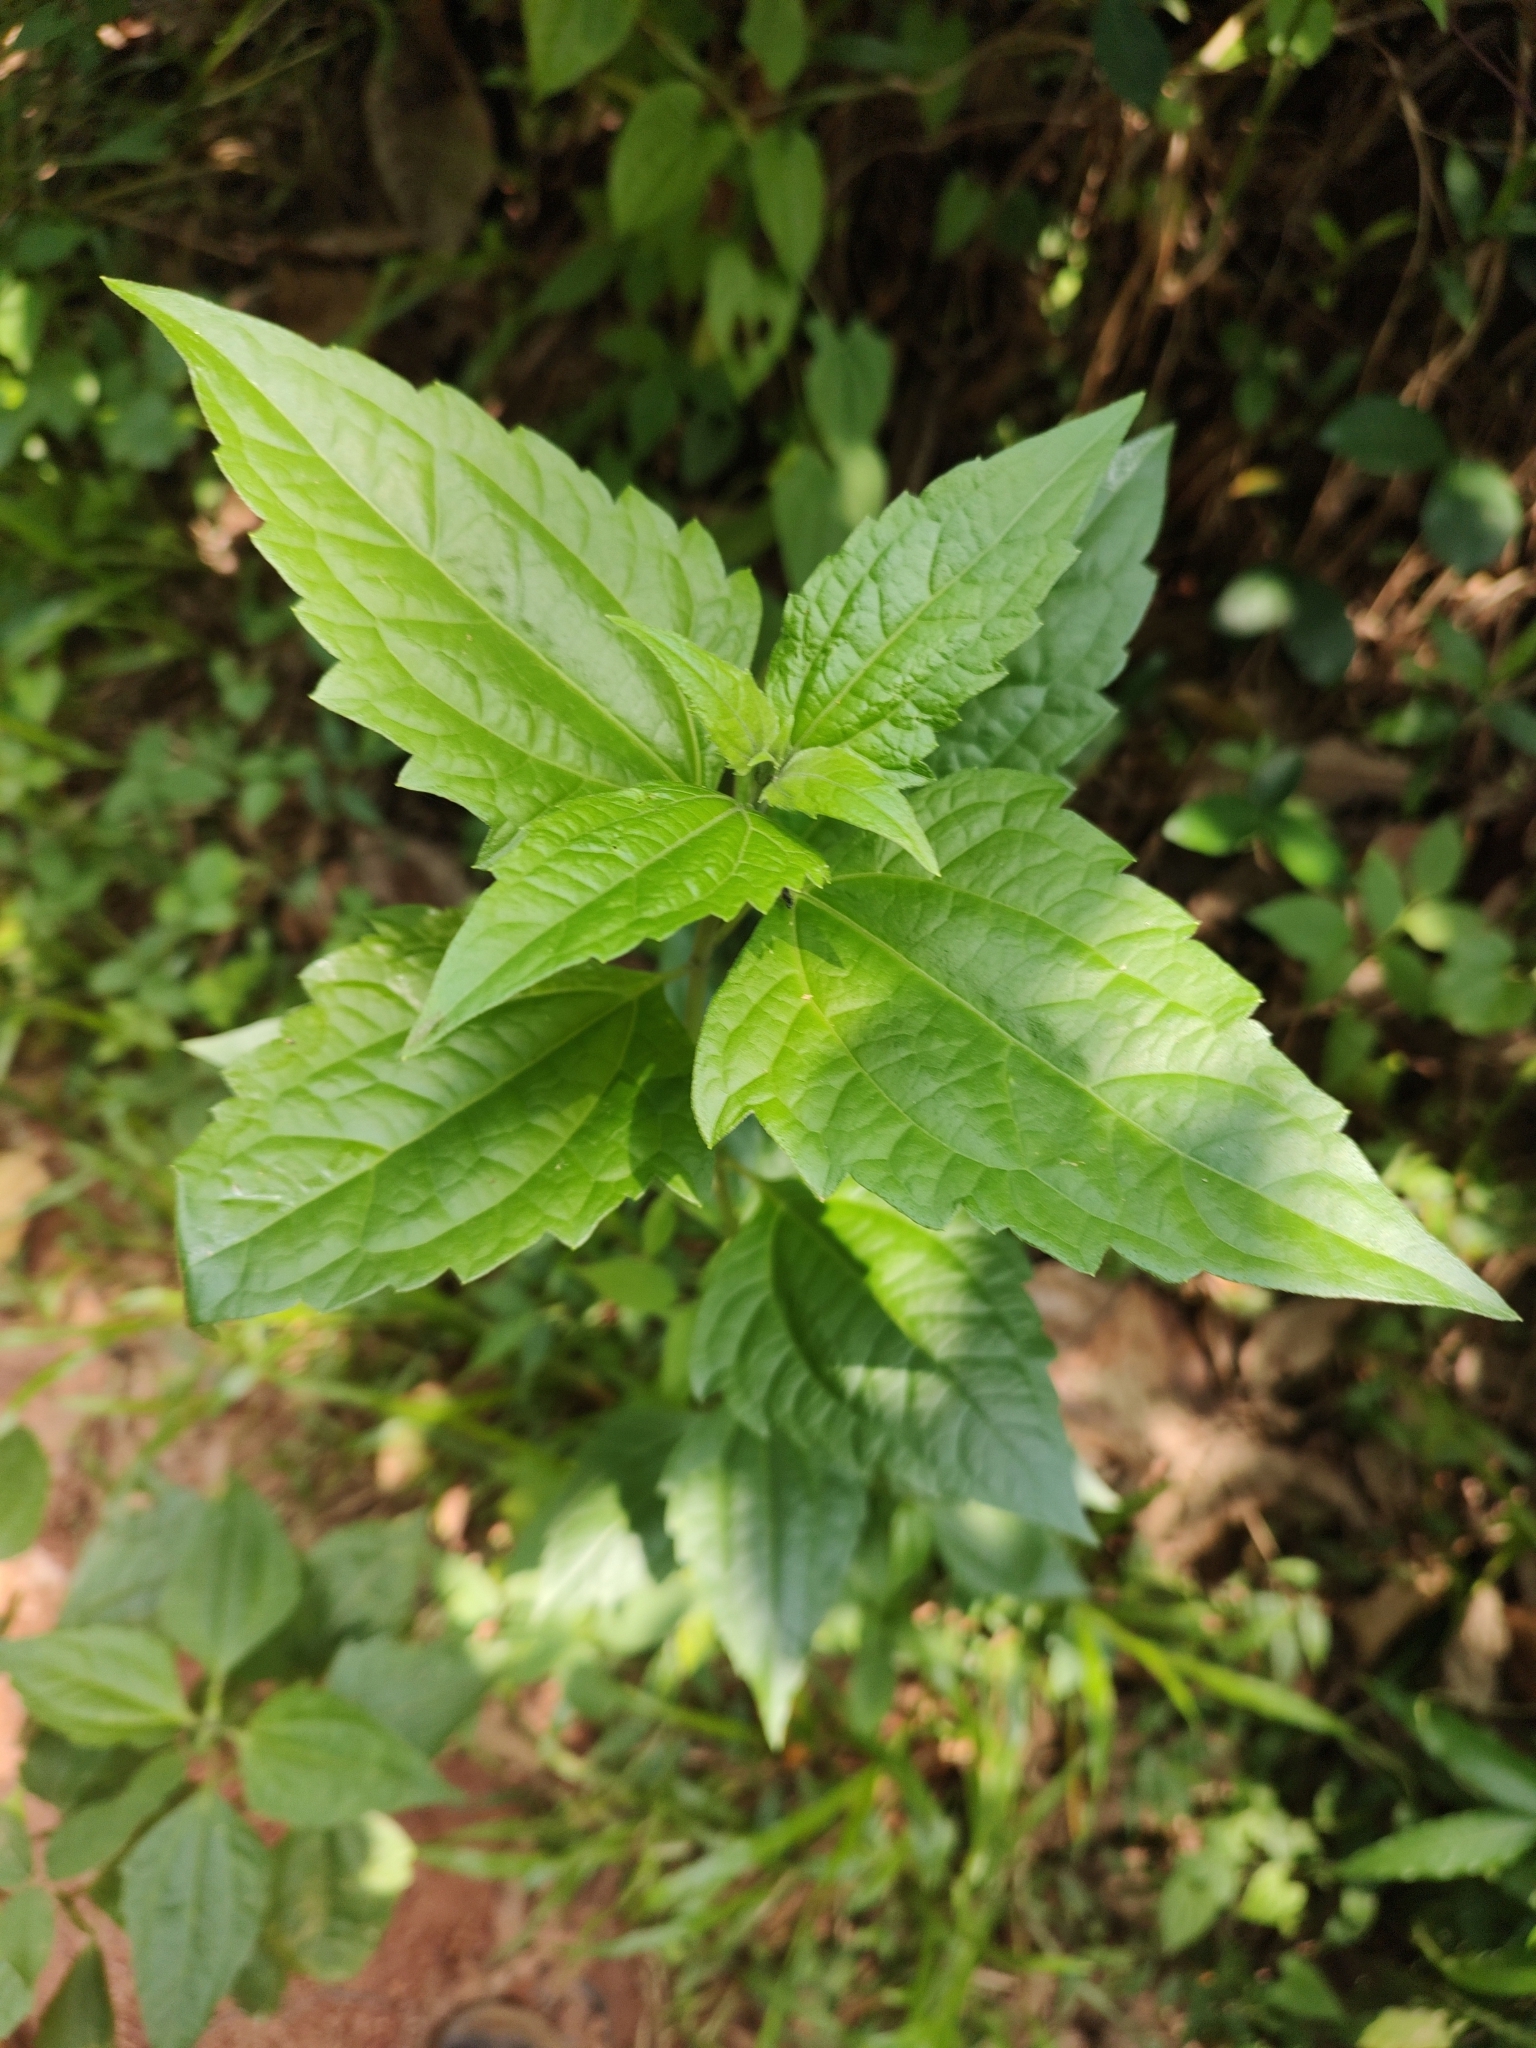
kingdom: Plantae
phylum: Tracheophyta
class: Magnoliopsida
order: Asterales
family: Asteraceae
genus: Chromolaena
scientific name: Chromolaena odorata
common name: Siamweed
